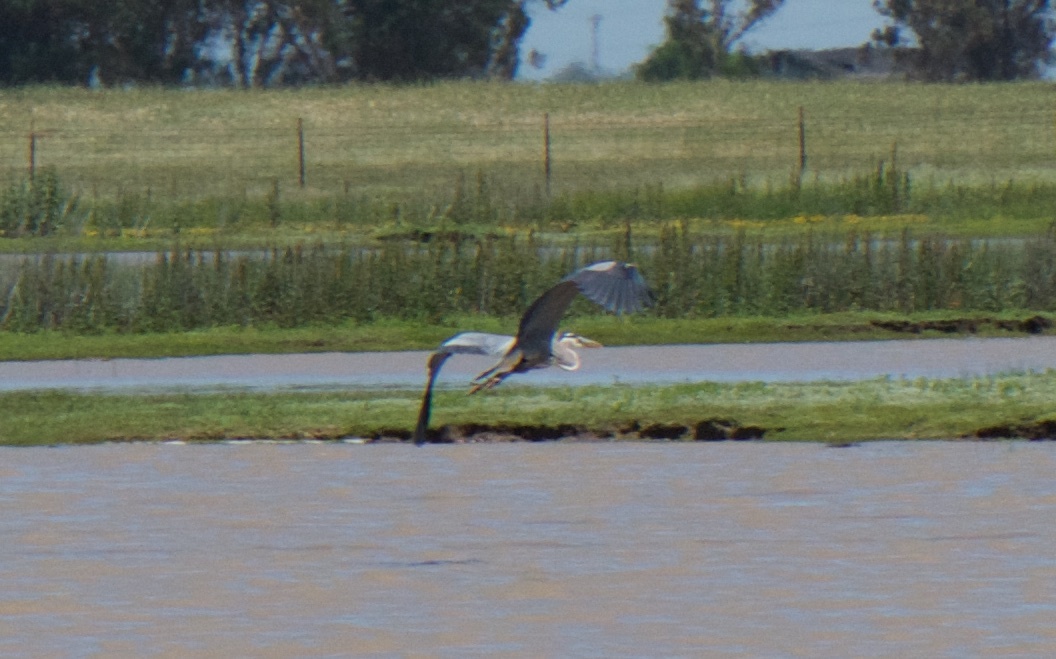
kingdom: Animalia
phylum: Chordata
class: Aves
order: Pelecaniformes
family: Ardeidae
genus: Ardea
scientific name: Ardea herodias
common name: Great blue heron
